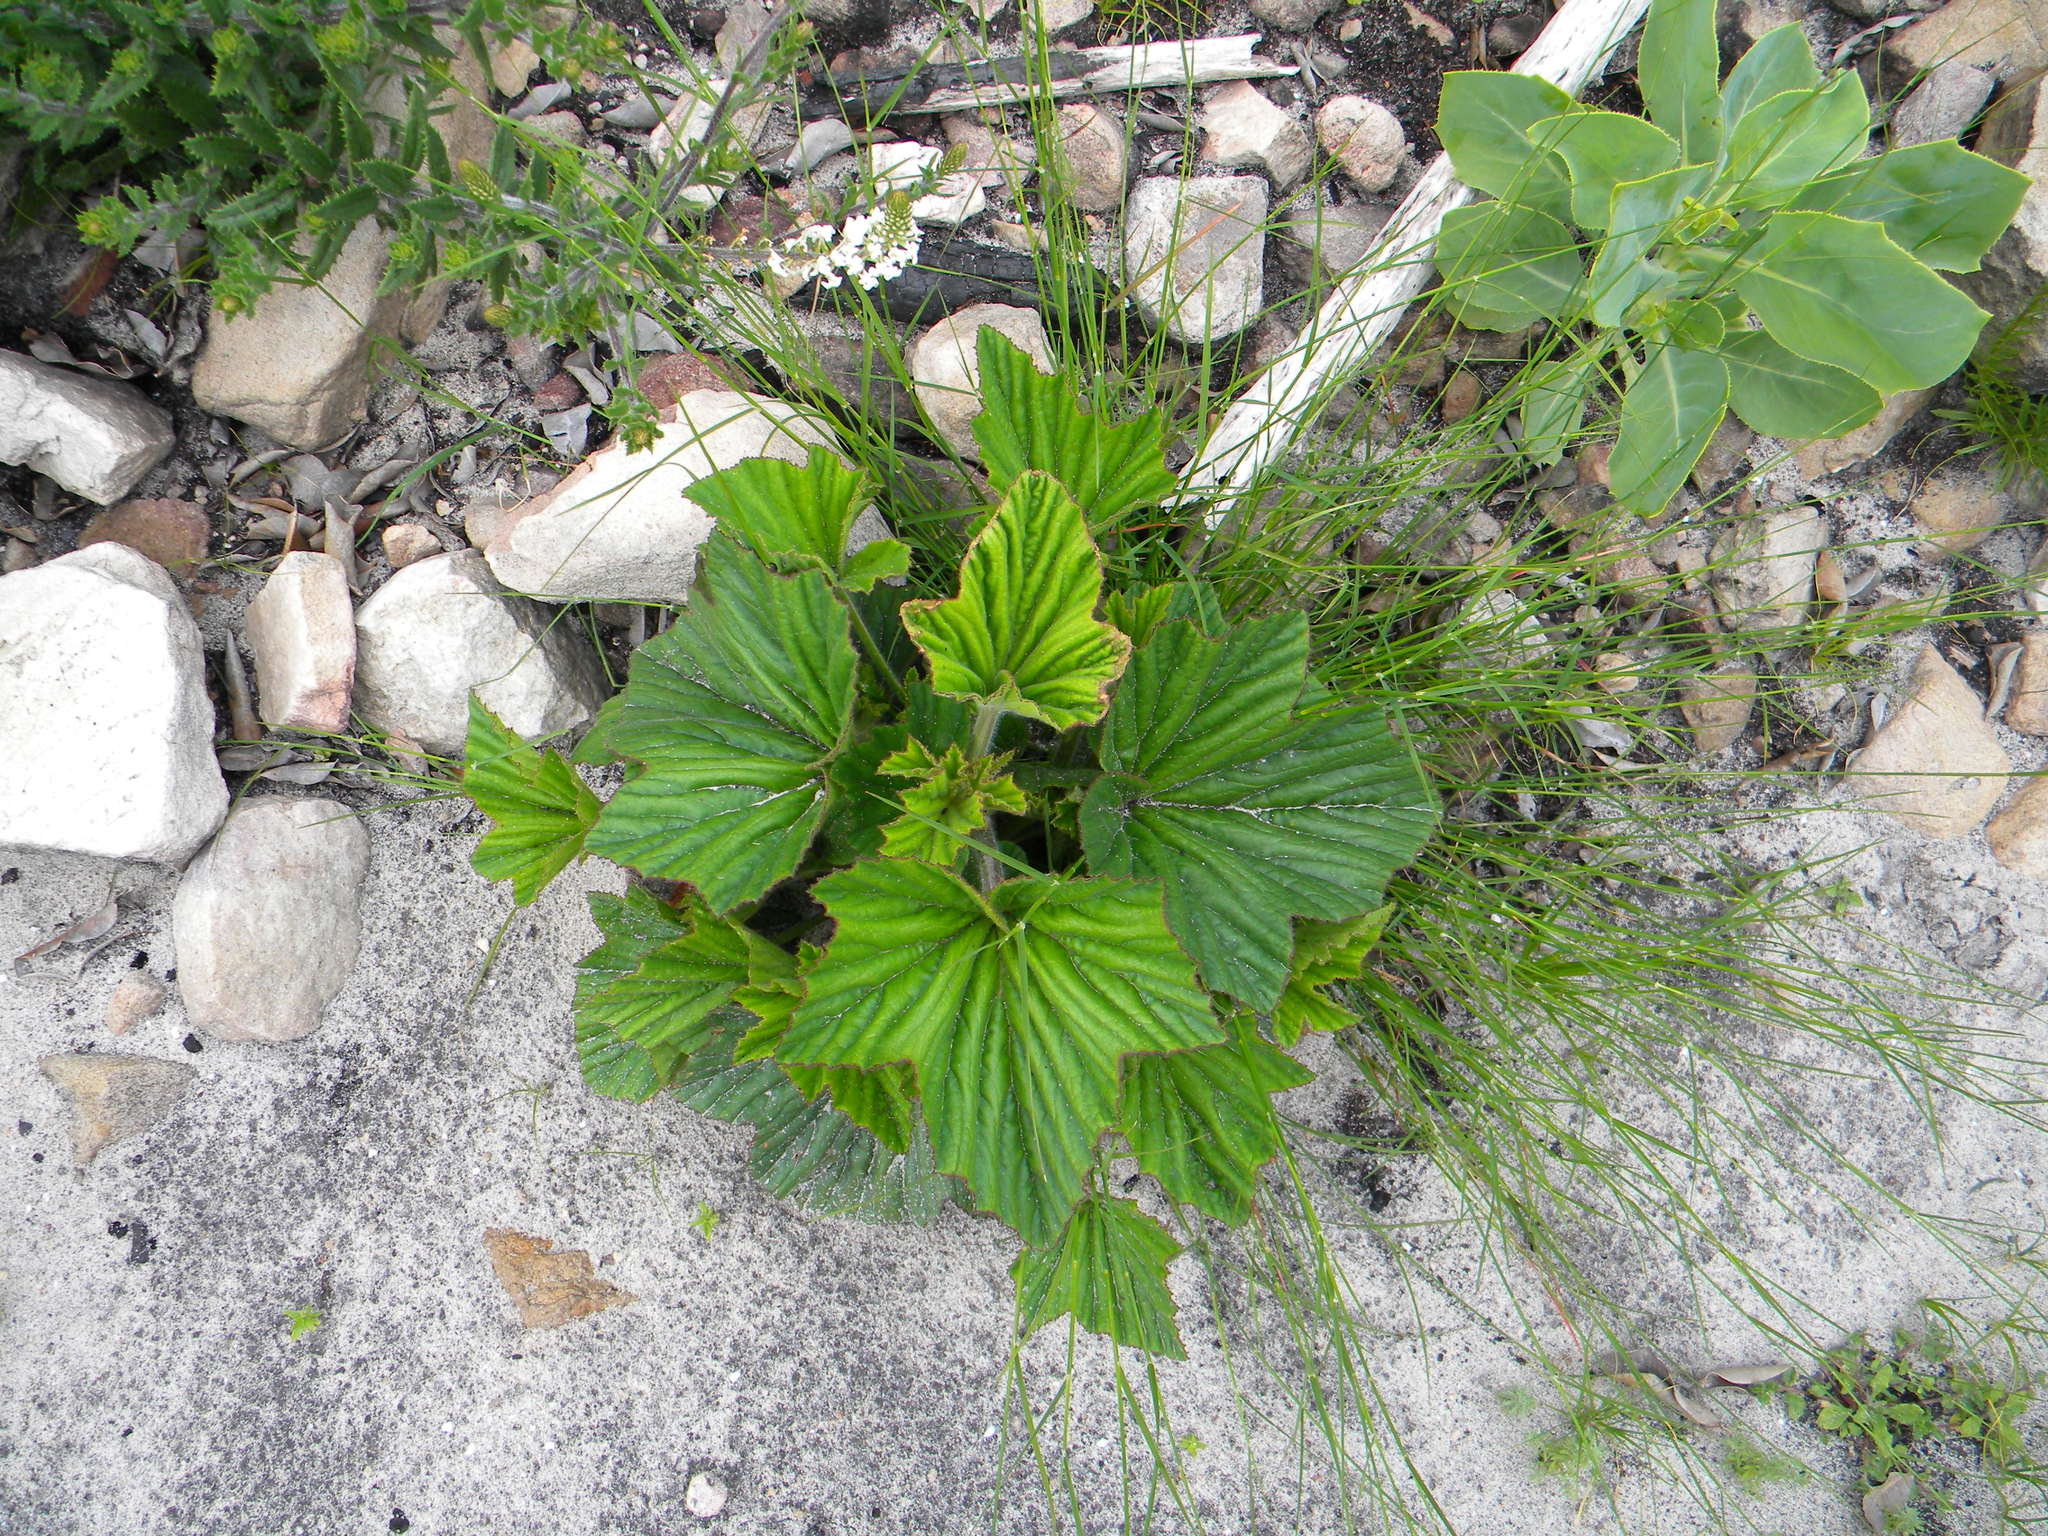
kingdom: Plantae
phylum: Tracheophyta
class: Magnoliopsida
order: Geraniales
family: Geraniaceae
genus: Pelargonium
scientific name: Pelargonium cucullatum
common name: Tree pelargonium
